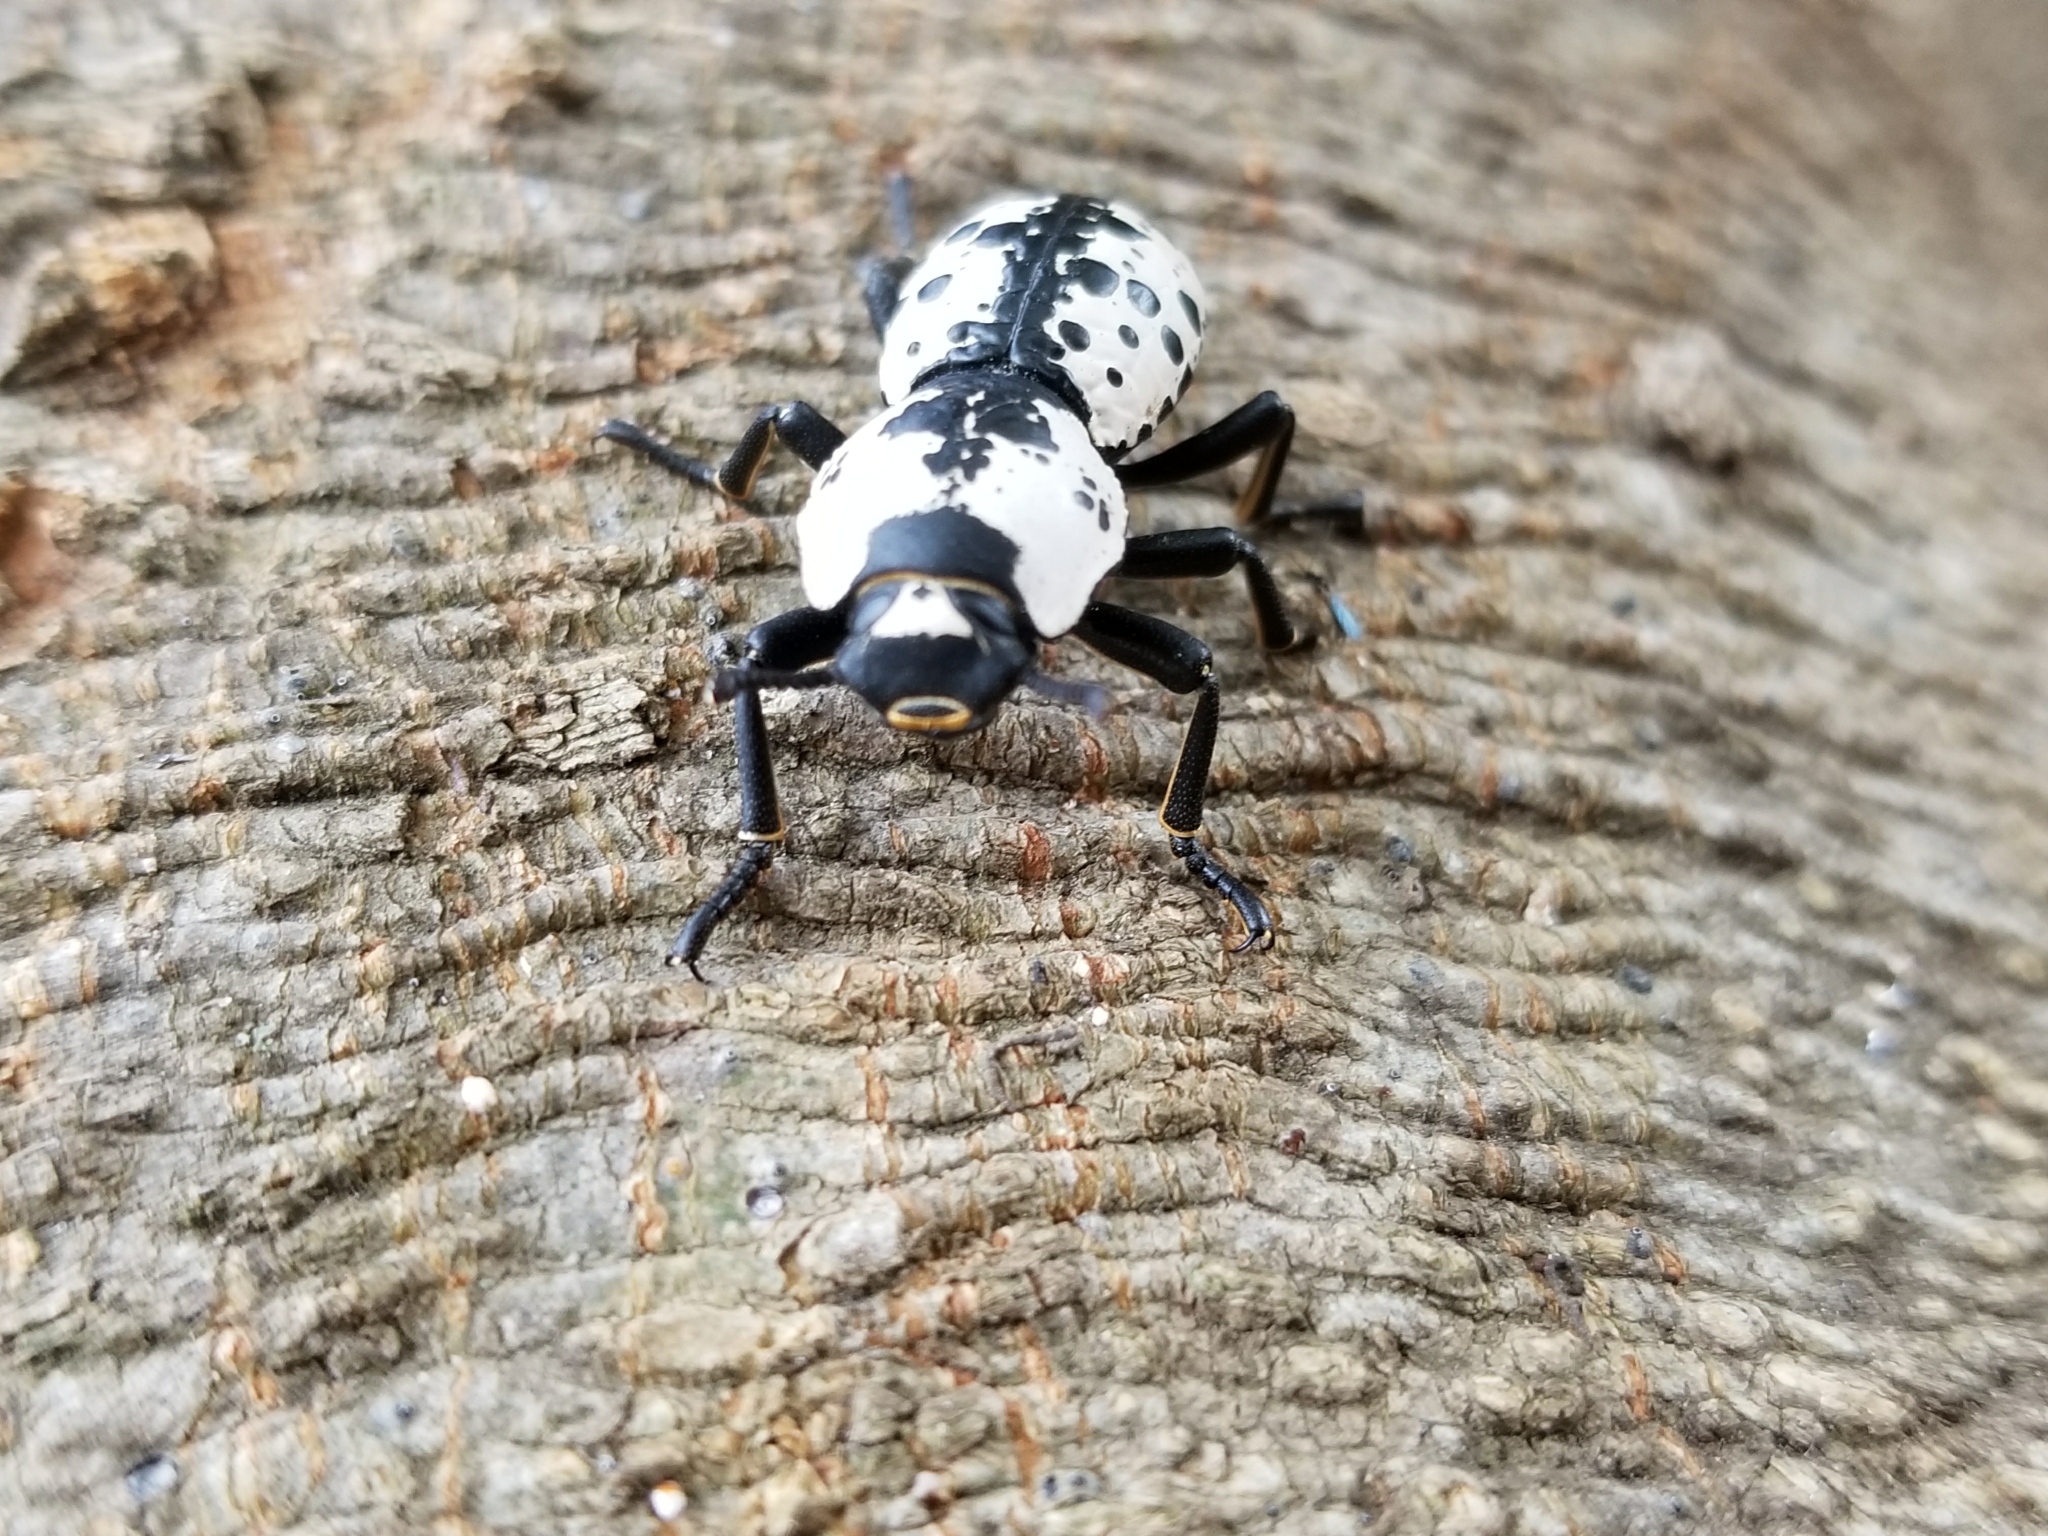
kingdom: Animalia
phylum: Arthropoda
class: Insecta
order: Coleoptera
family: Zopheridae
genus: Zopherus
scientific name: Zopherus nodulosus
